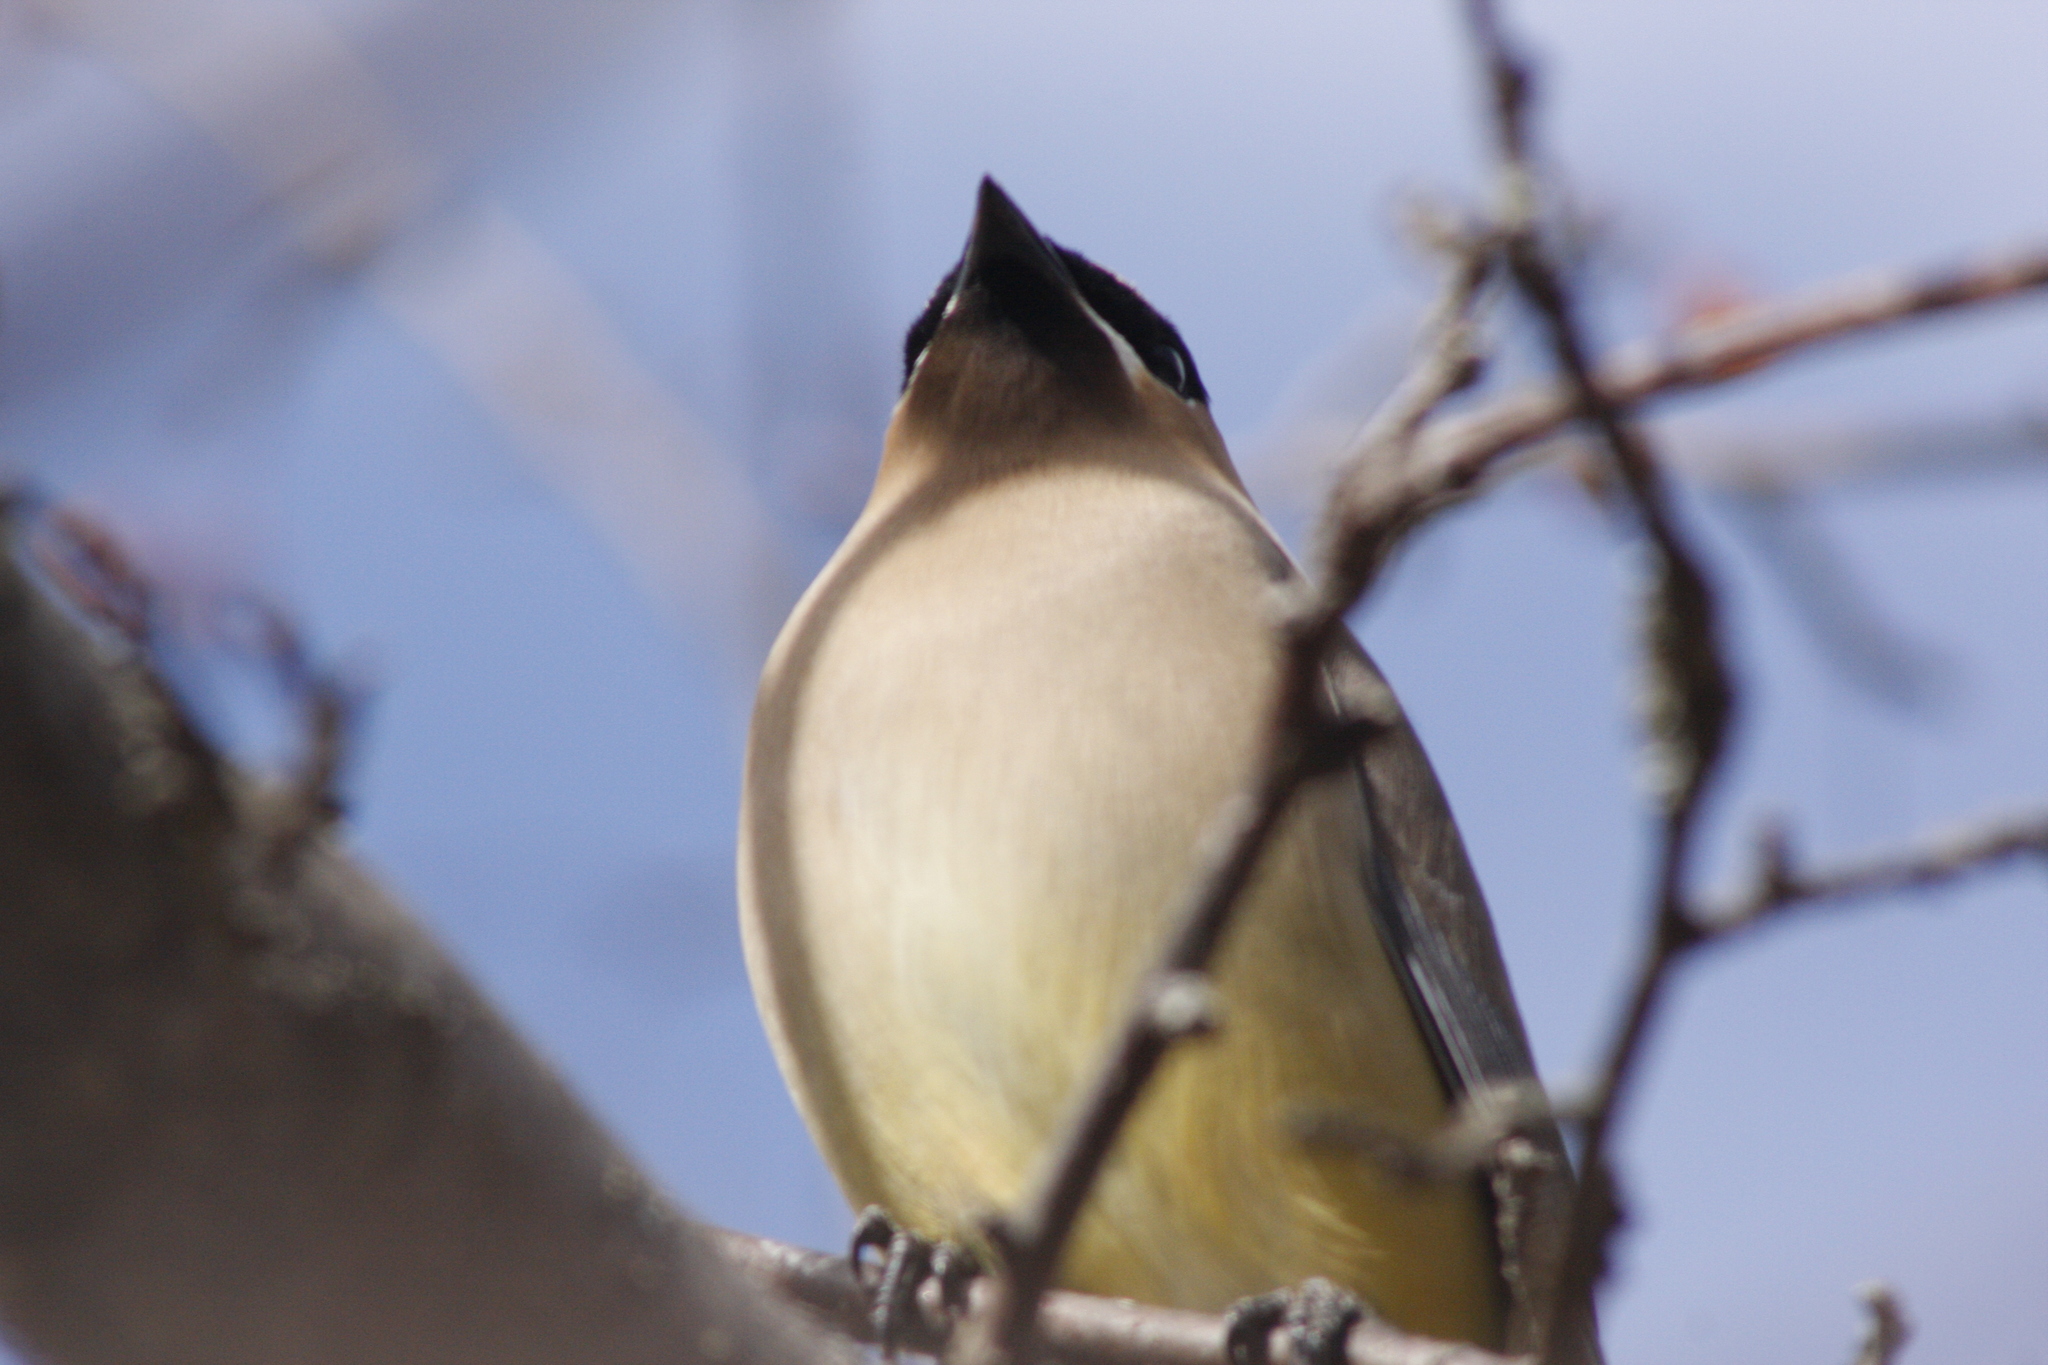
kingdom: Animalia
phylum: Chordata
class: Aves
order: Passeriformes
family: Bombycillidae
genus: Bombycilla
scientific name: Bombycilla cedrorum
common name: Cedar waxwing
